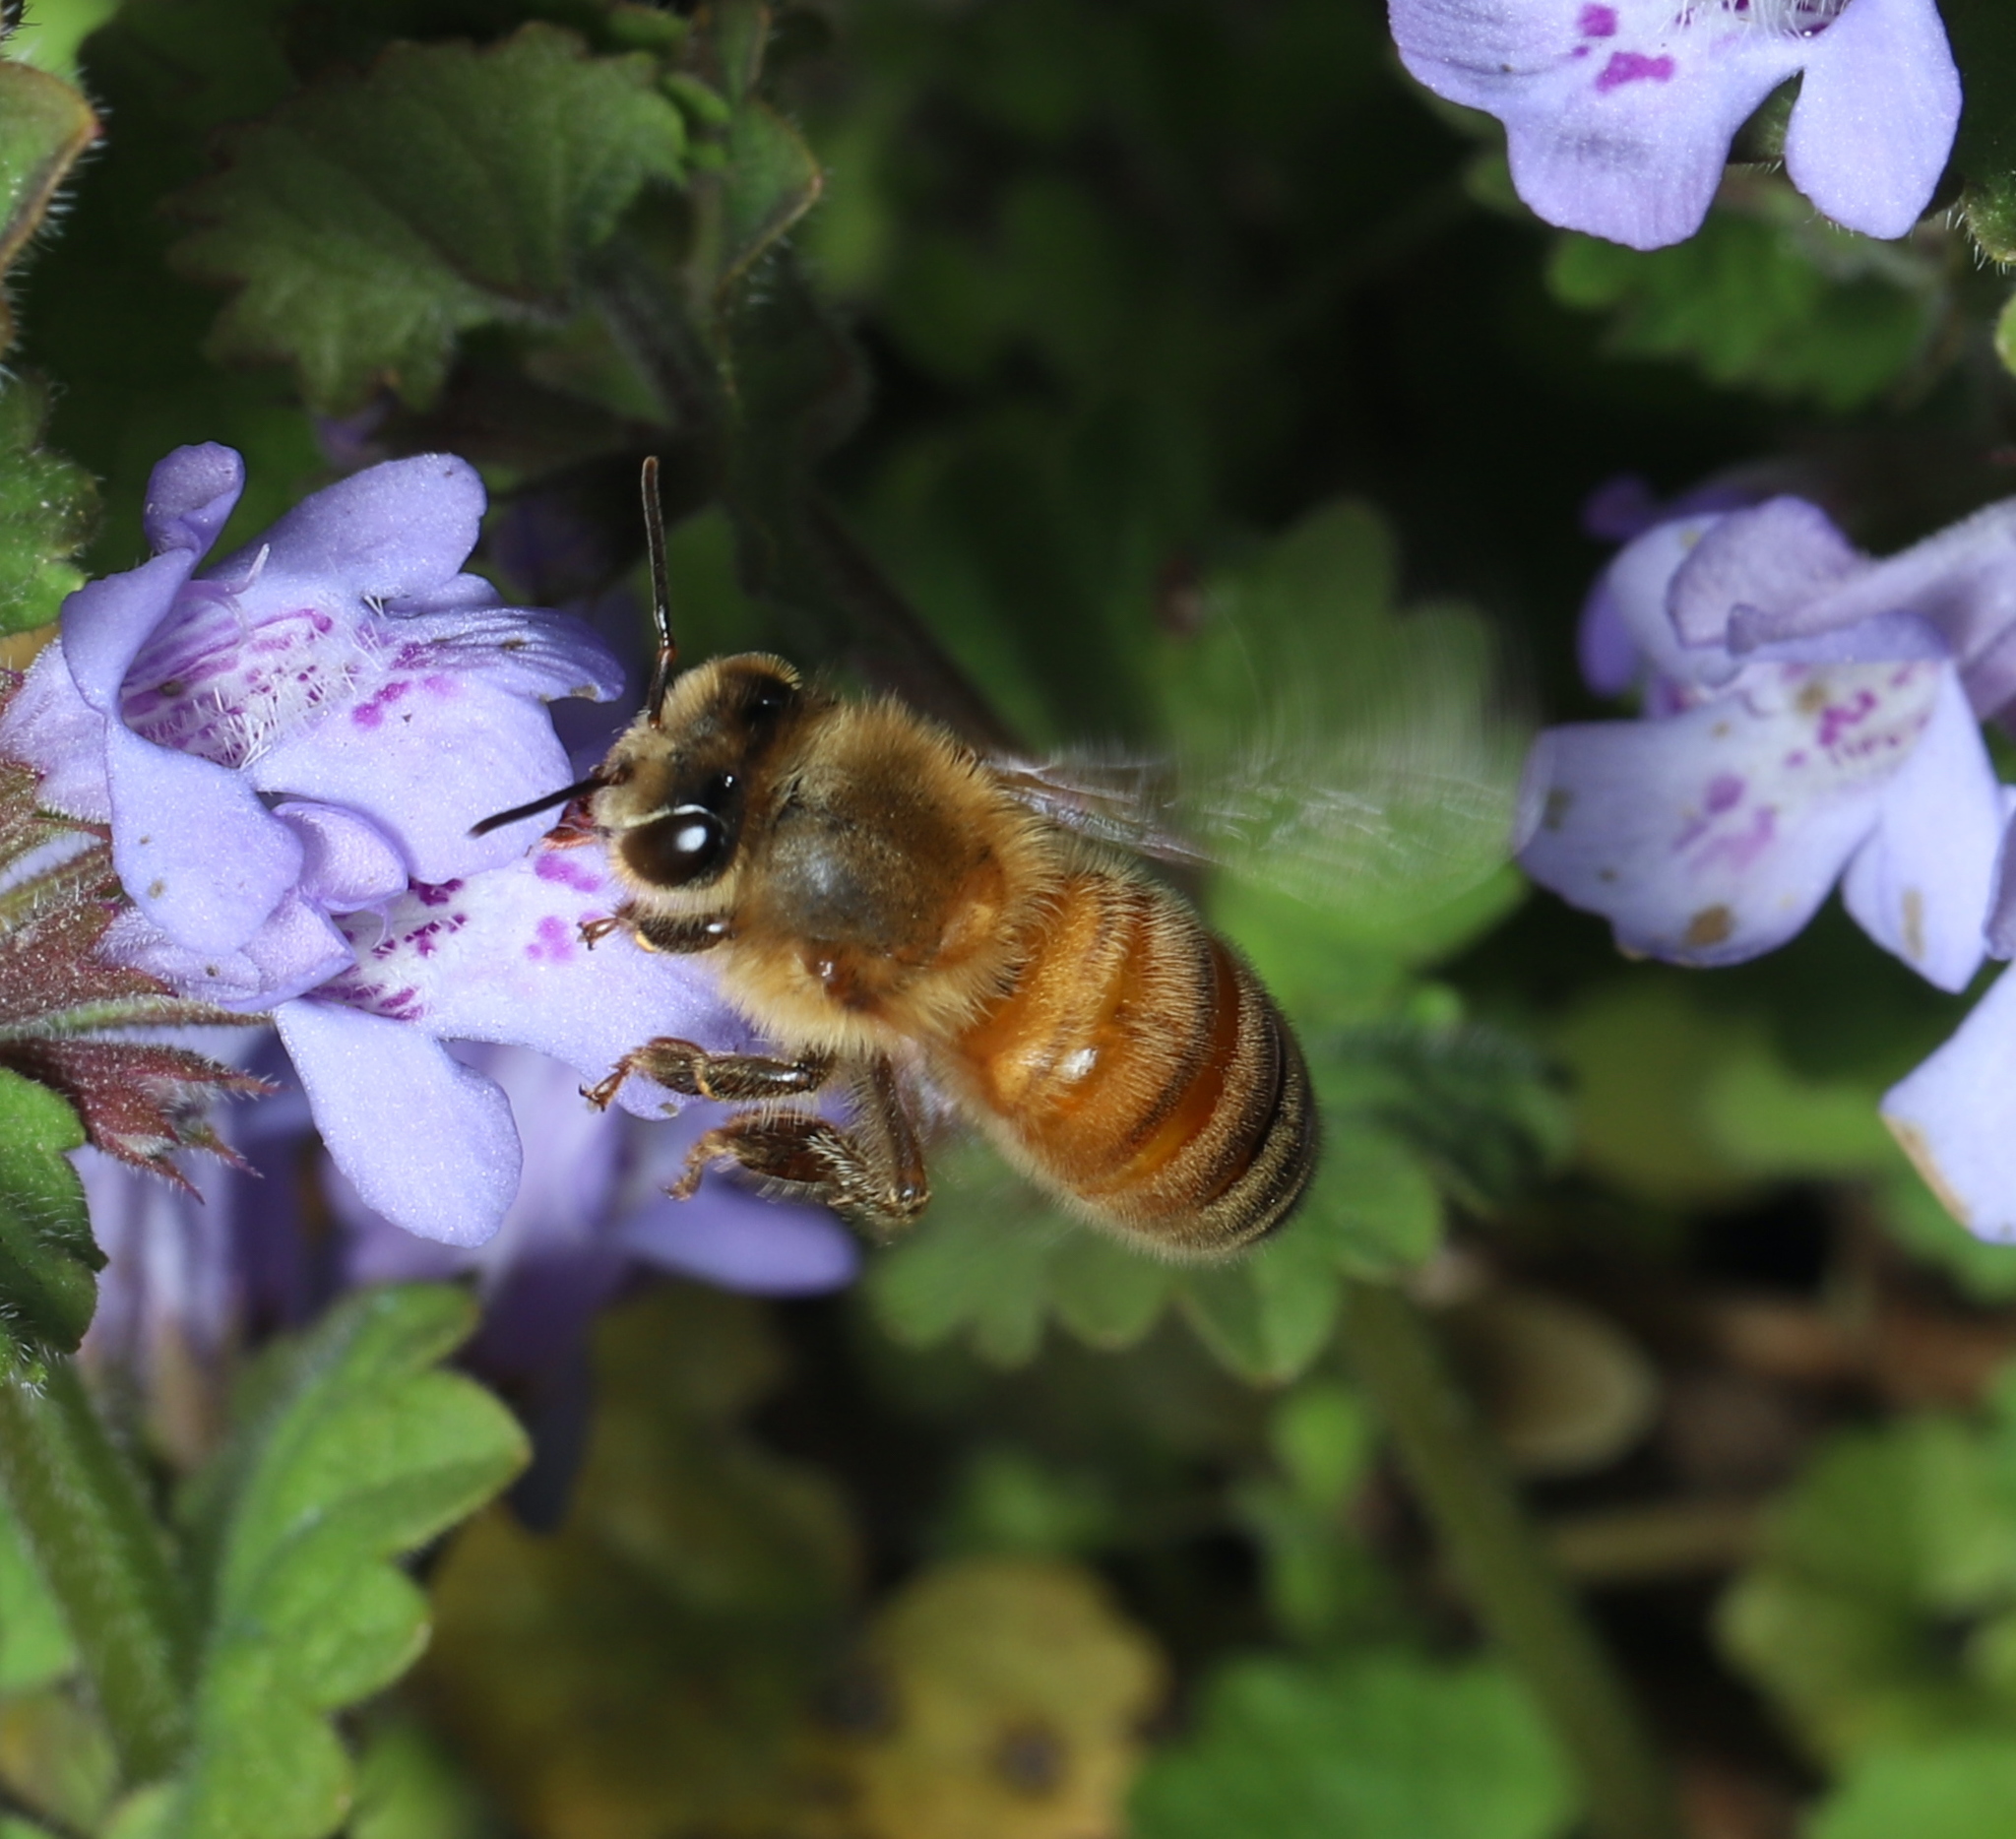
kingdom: Animalia
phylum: Arthropoda
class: Insecta
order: Hymenoptera
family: Apidae
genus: Apis
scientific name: Apis mellifera
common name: Honey bee
